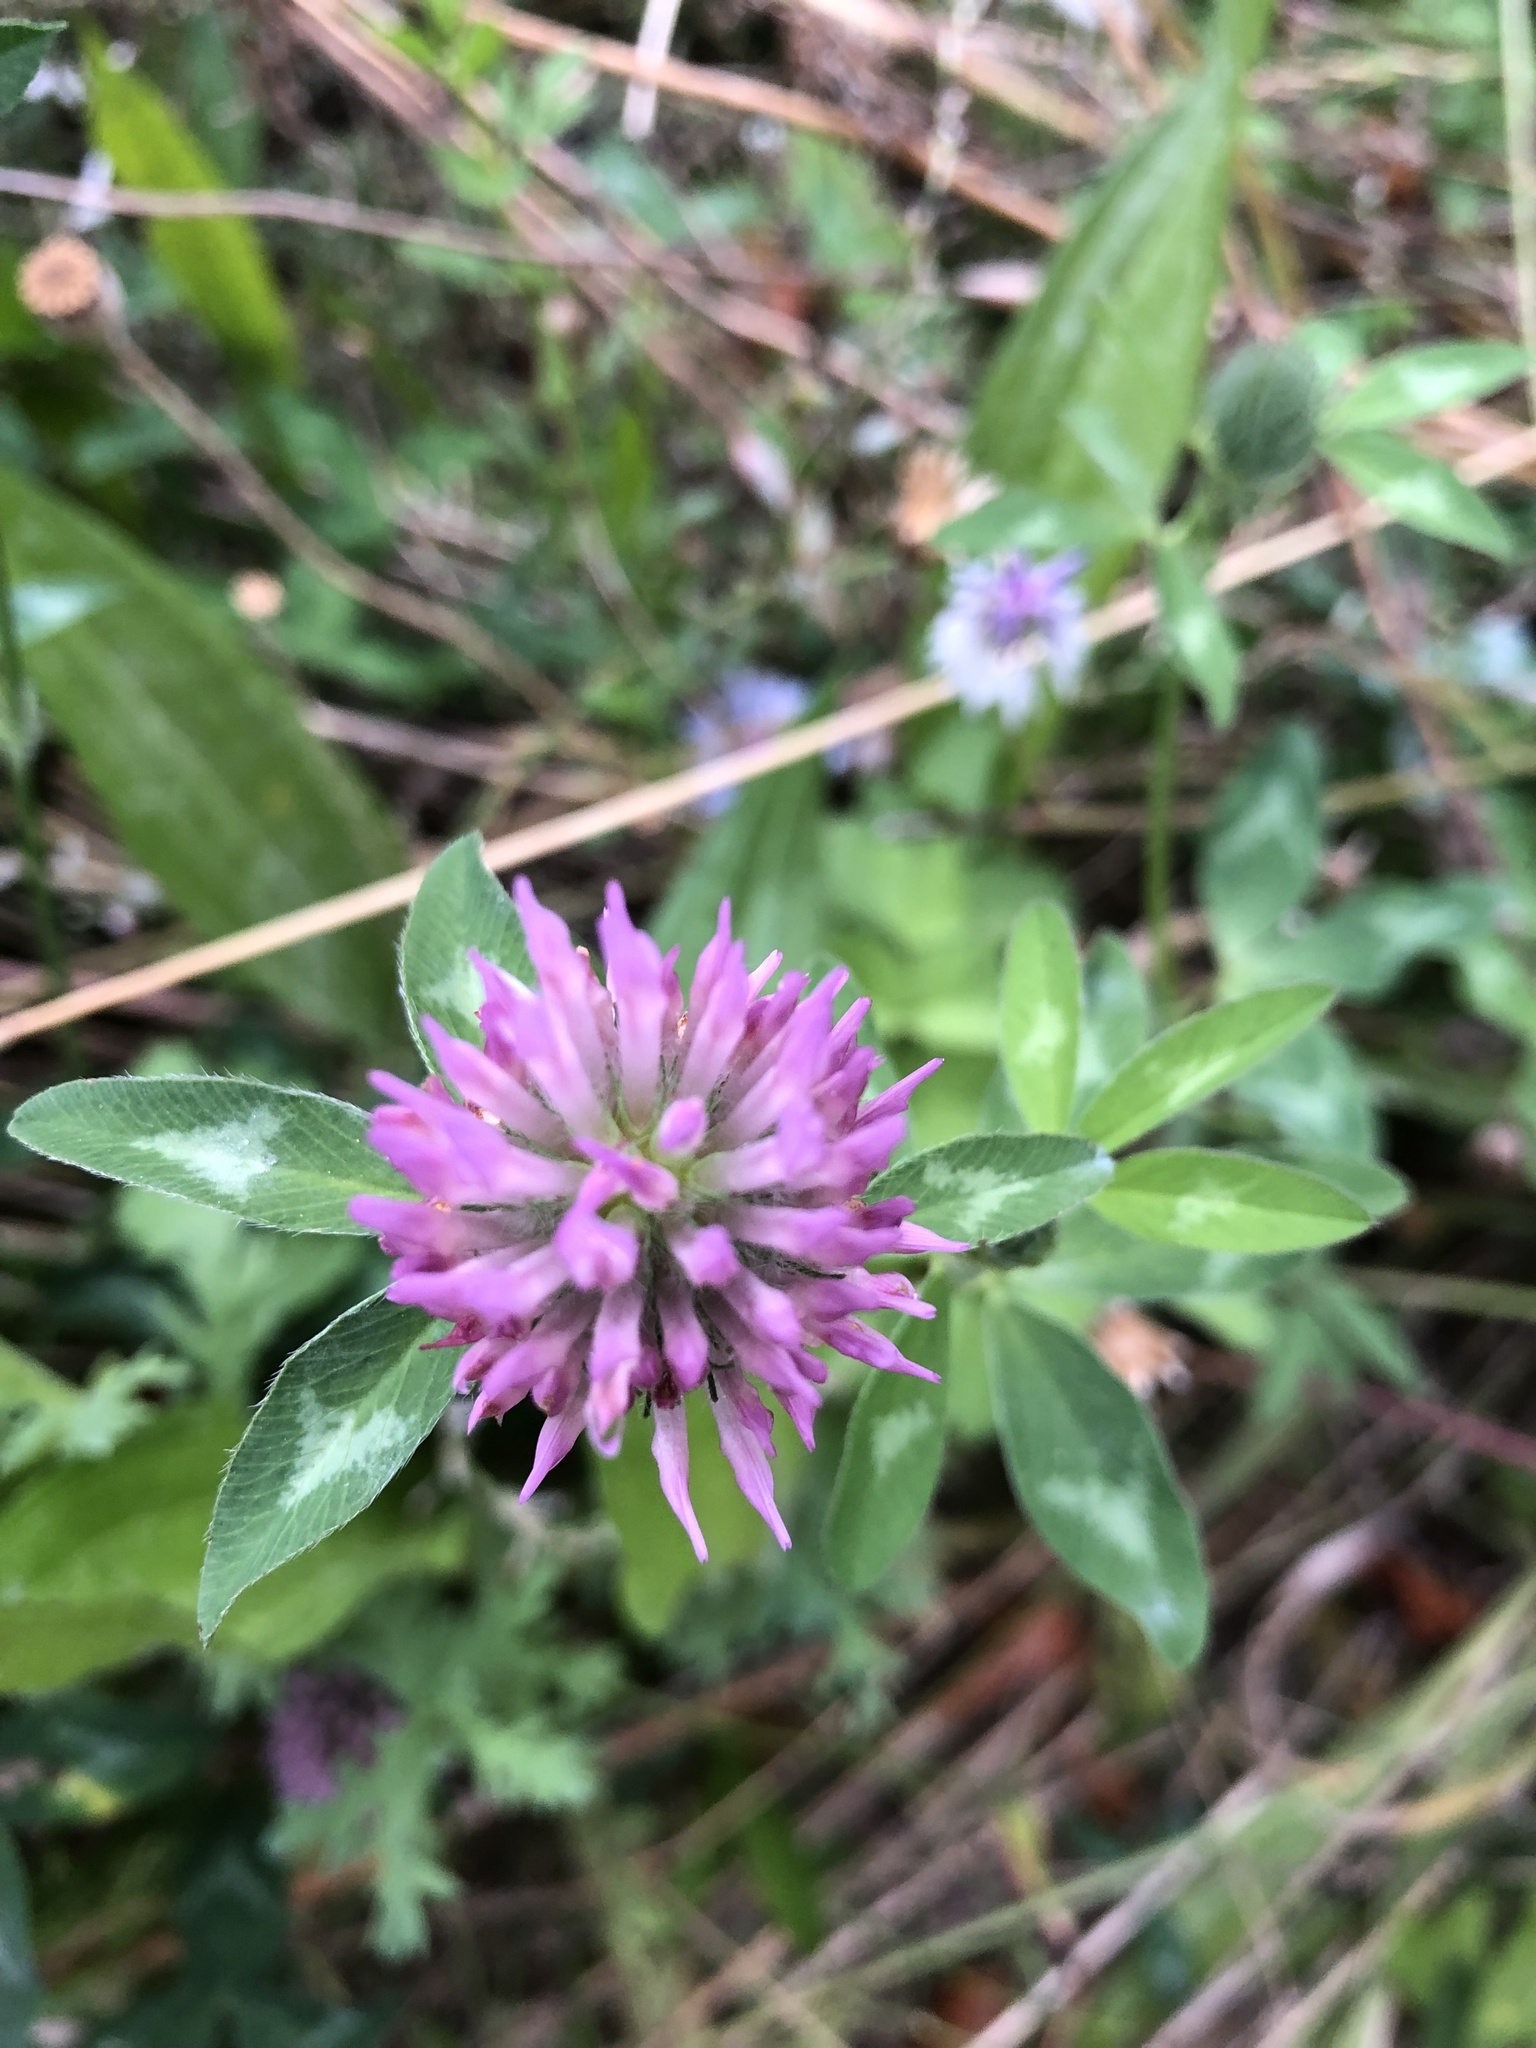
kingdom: Plantae
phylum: Tracheophyta
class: Magnoliopsida
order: Fabales
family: Fabaceae
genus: Trifolium
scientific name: Trifolium pratense
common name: Red clover
